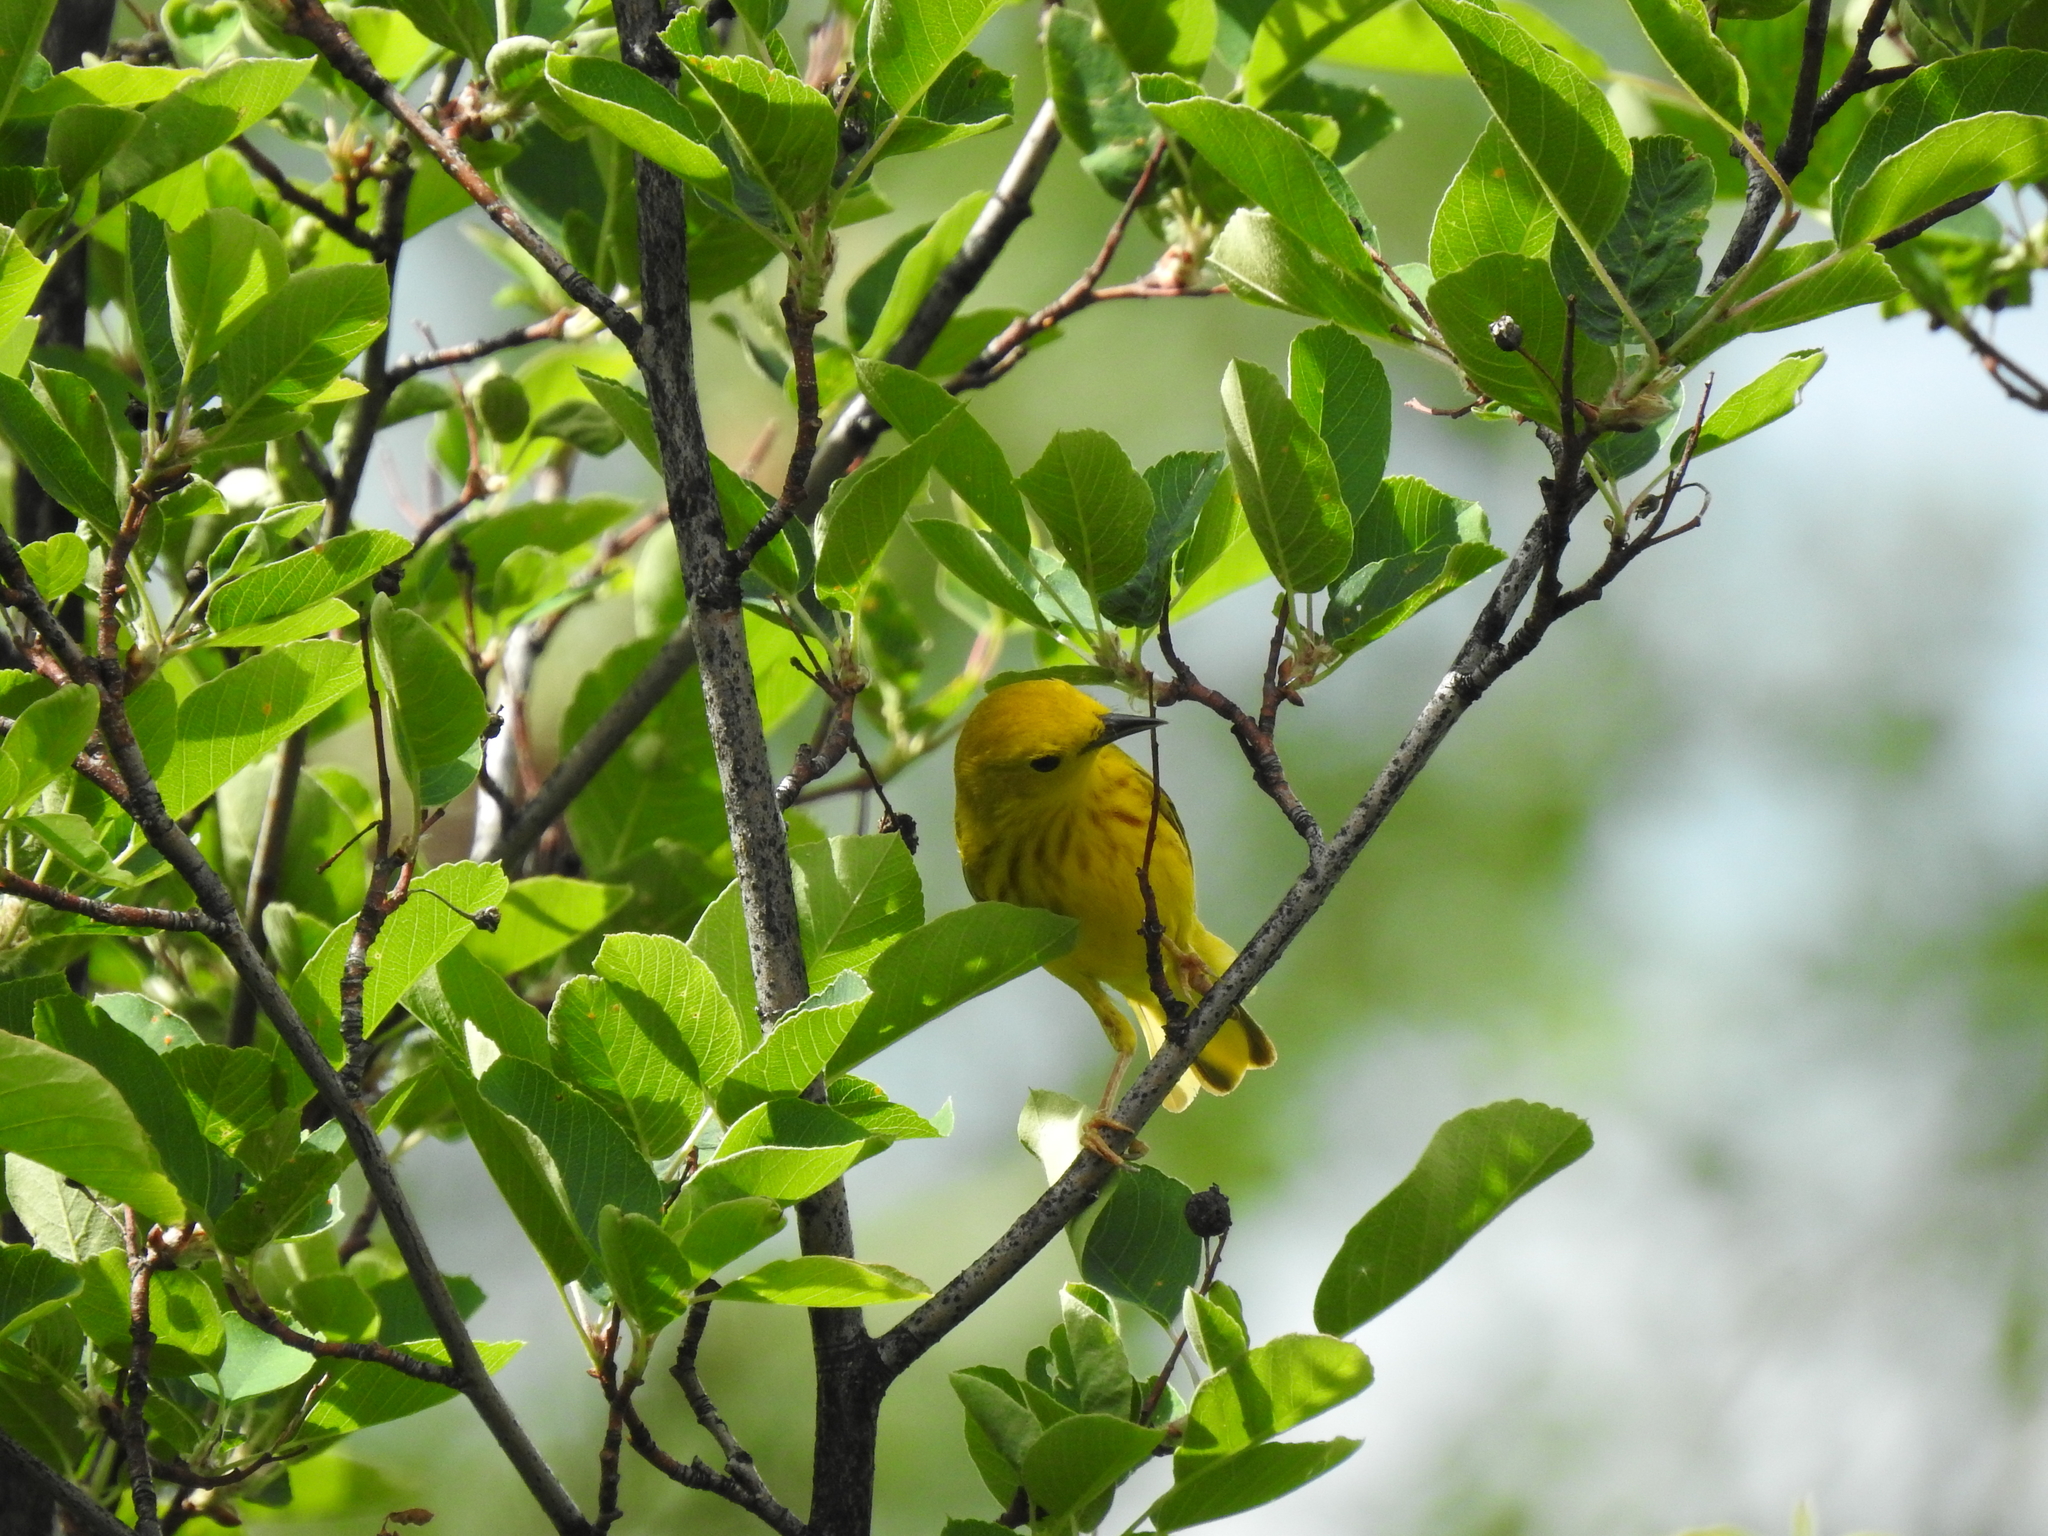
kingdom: Animalia
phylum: Chordata
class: Aves
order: Passeriformes
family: Parulidae
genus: Setophaga
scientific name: Setophaga petechia
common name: Yellow warbler
